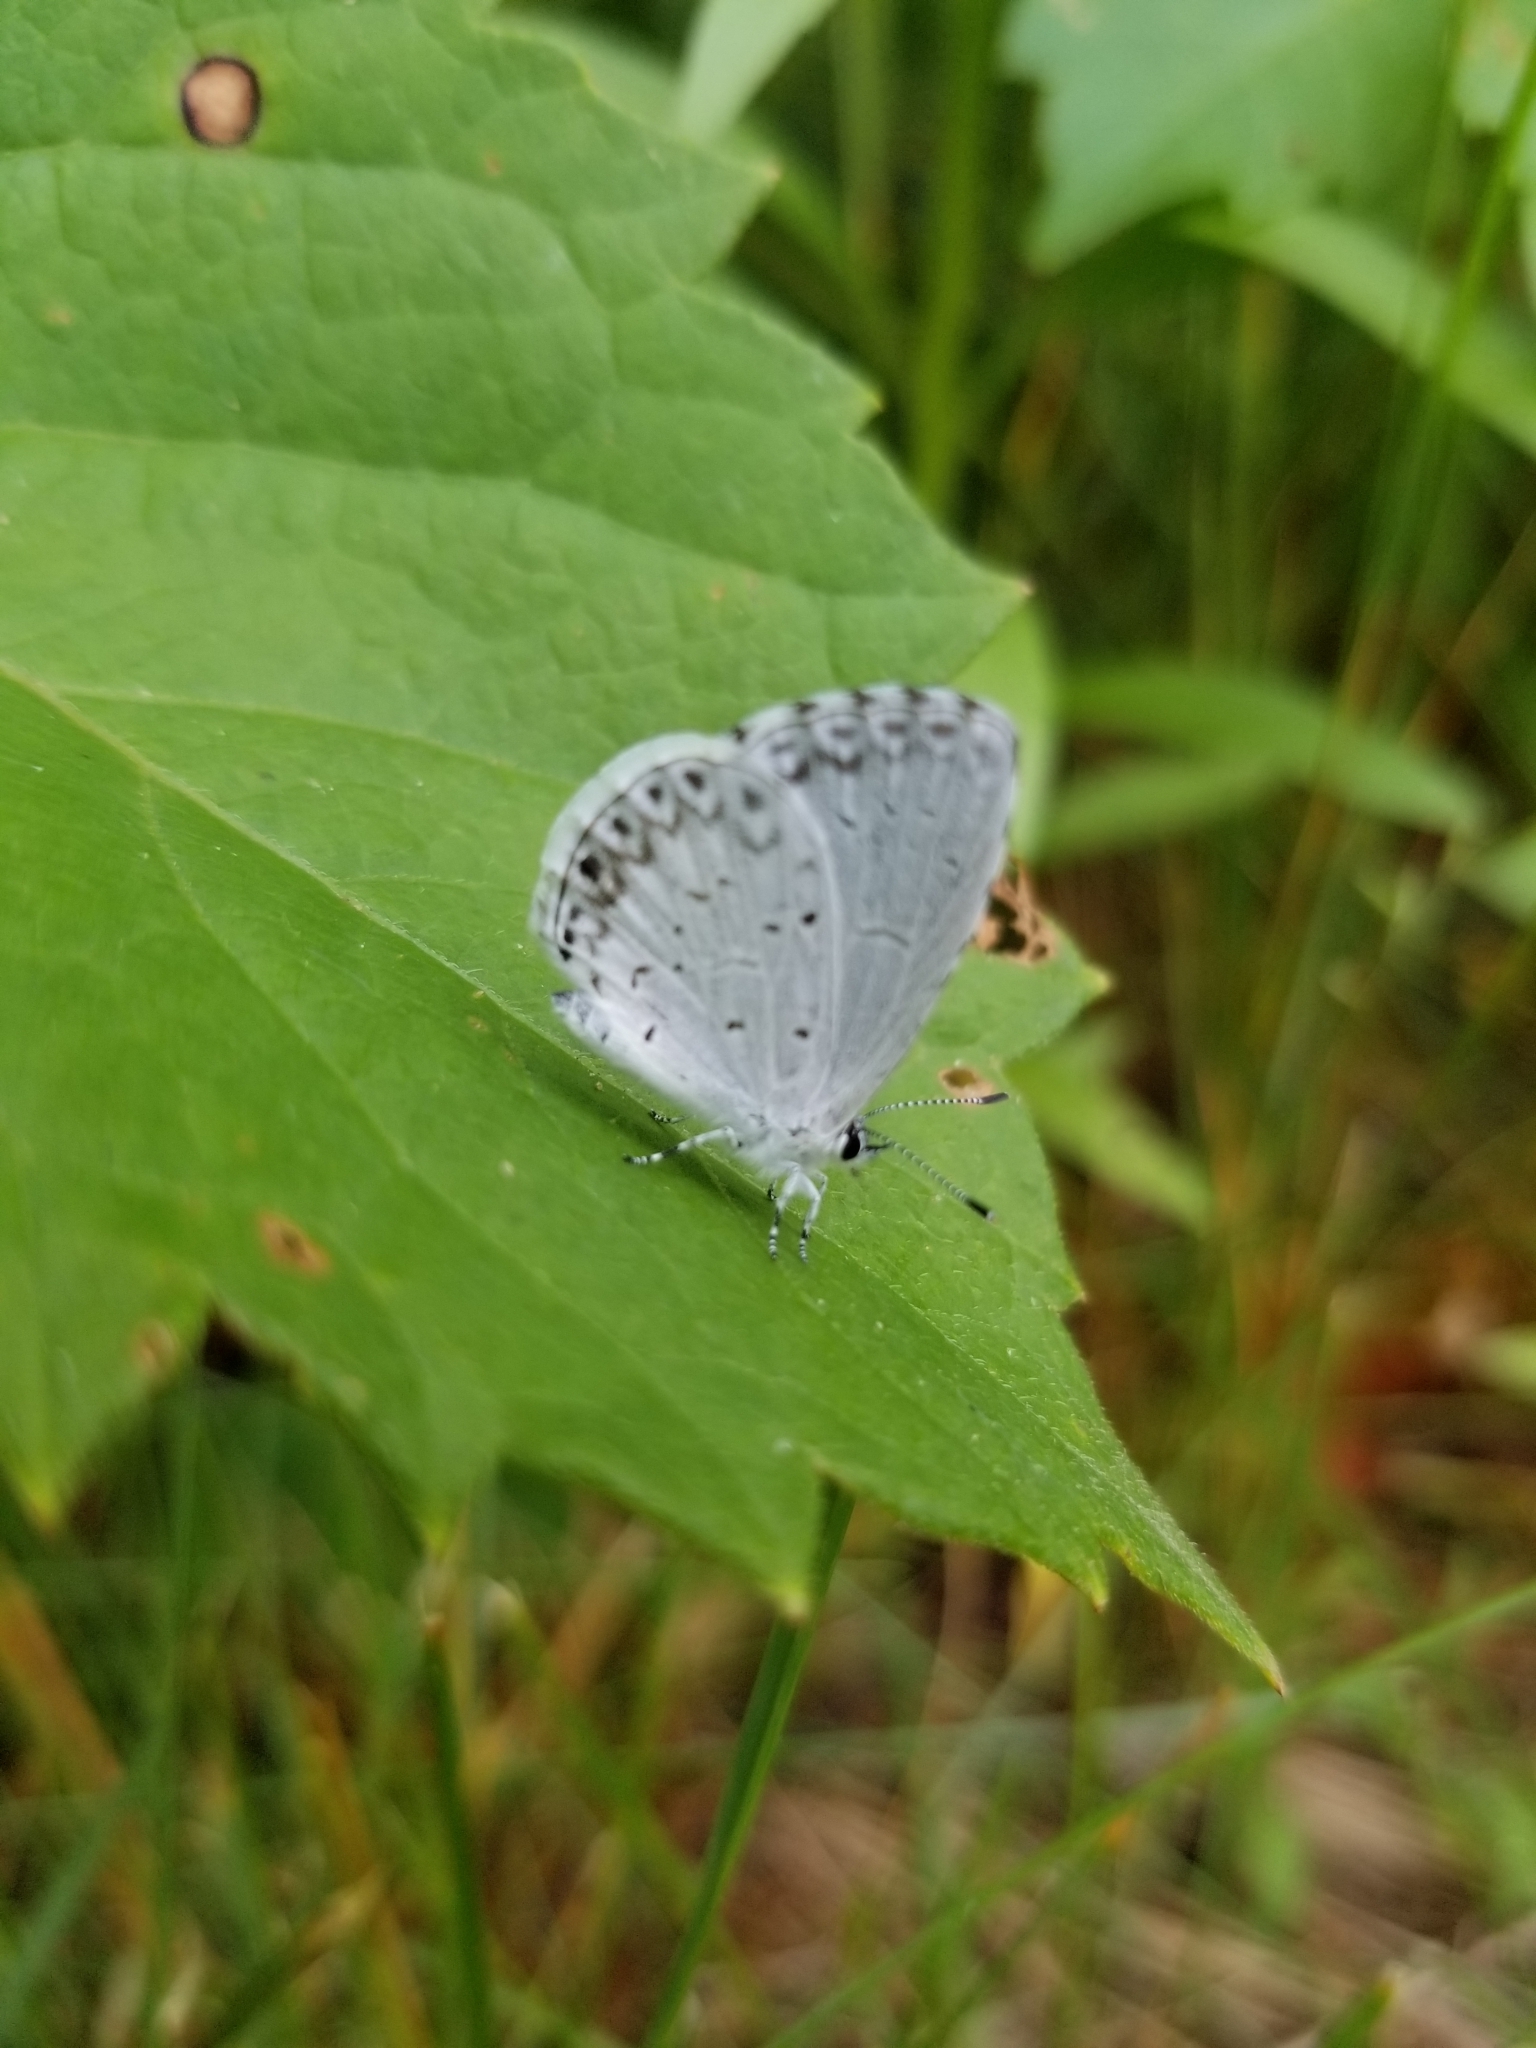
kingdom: Animalia
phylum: Arthropoda
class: Insecta
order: Lepidoptera
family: Lycaenidae
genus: Cyaniris
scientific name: Cyaniris neglecta
